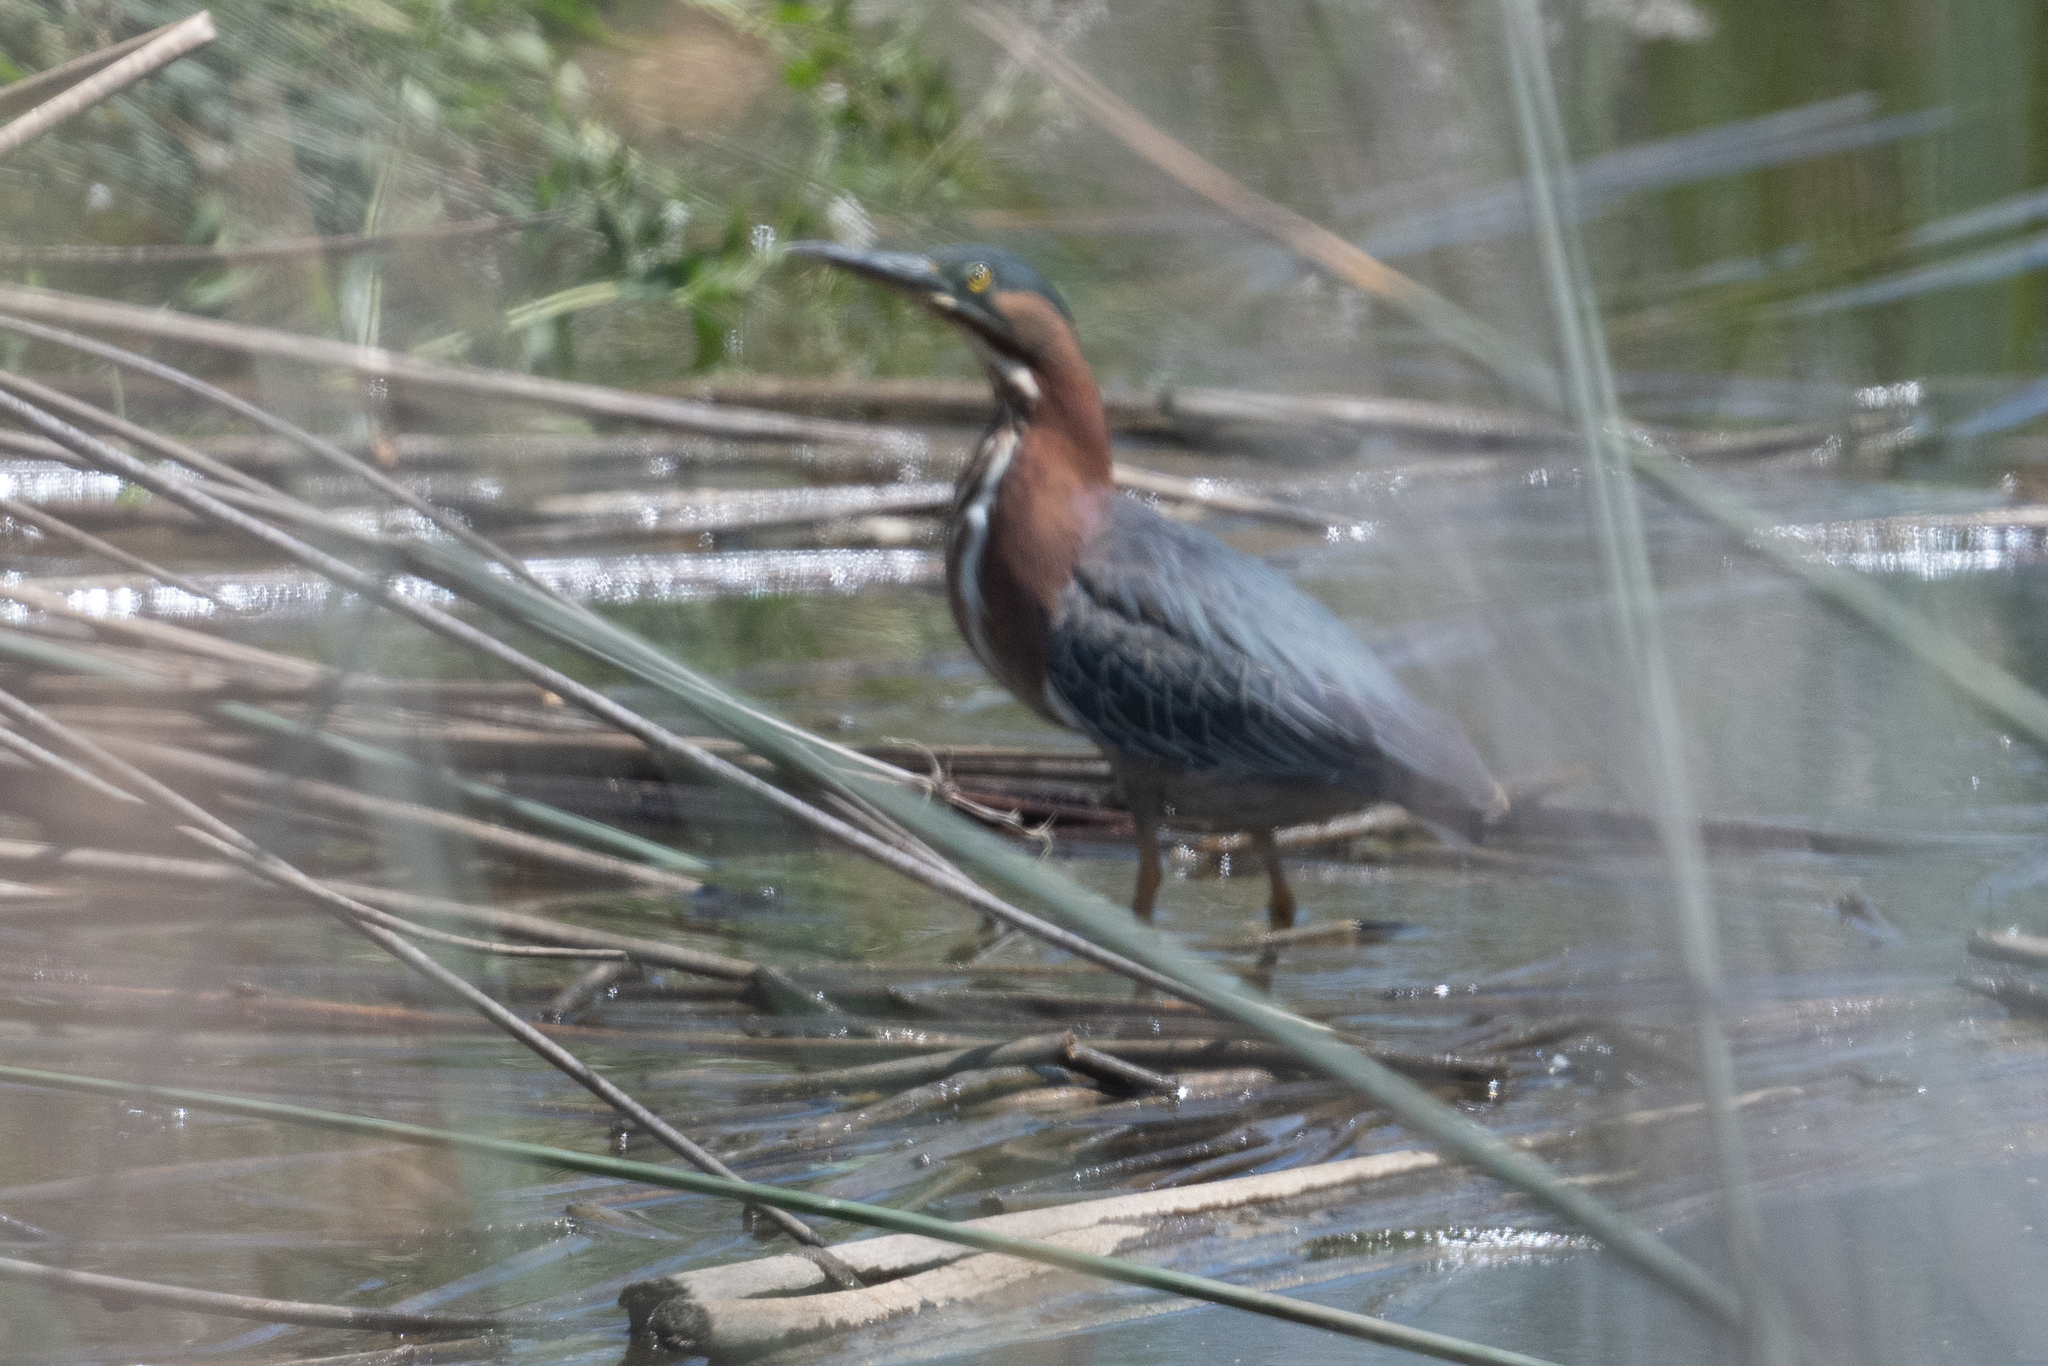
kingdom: Animalia
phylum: Chordata
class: Aves
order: Pelecaniformes
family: Ardeidae
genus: Butorides
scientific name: Butorides virescens
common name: Green heron
